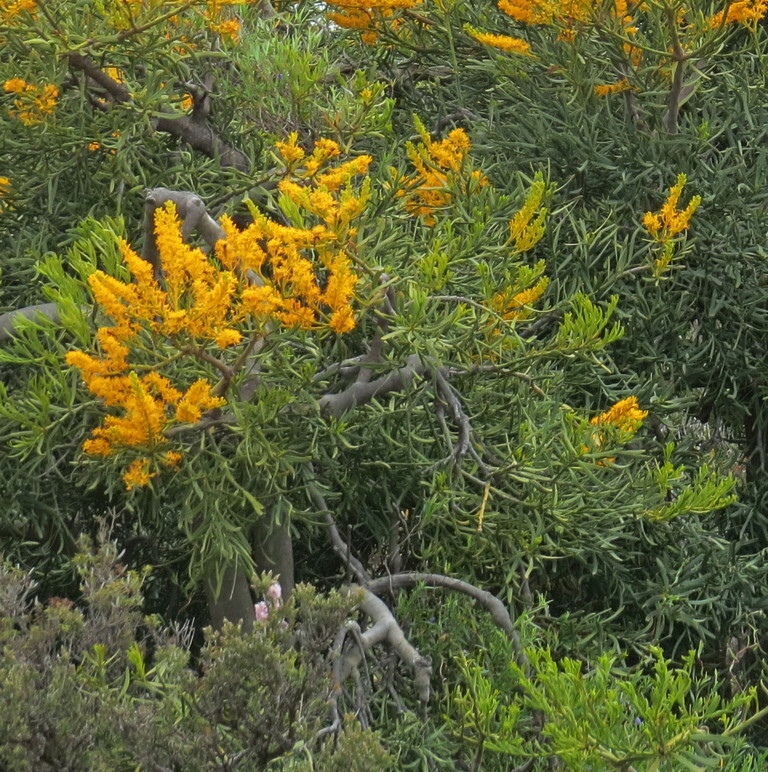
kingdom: Plantae
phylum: Tracheophyta
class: Magnoliopsida
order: Santalales
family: Loranthaceae
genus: Nuytsia
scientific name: Nuytsia floribunda
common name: Western australian christmastree
